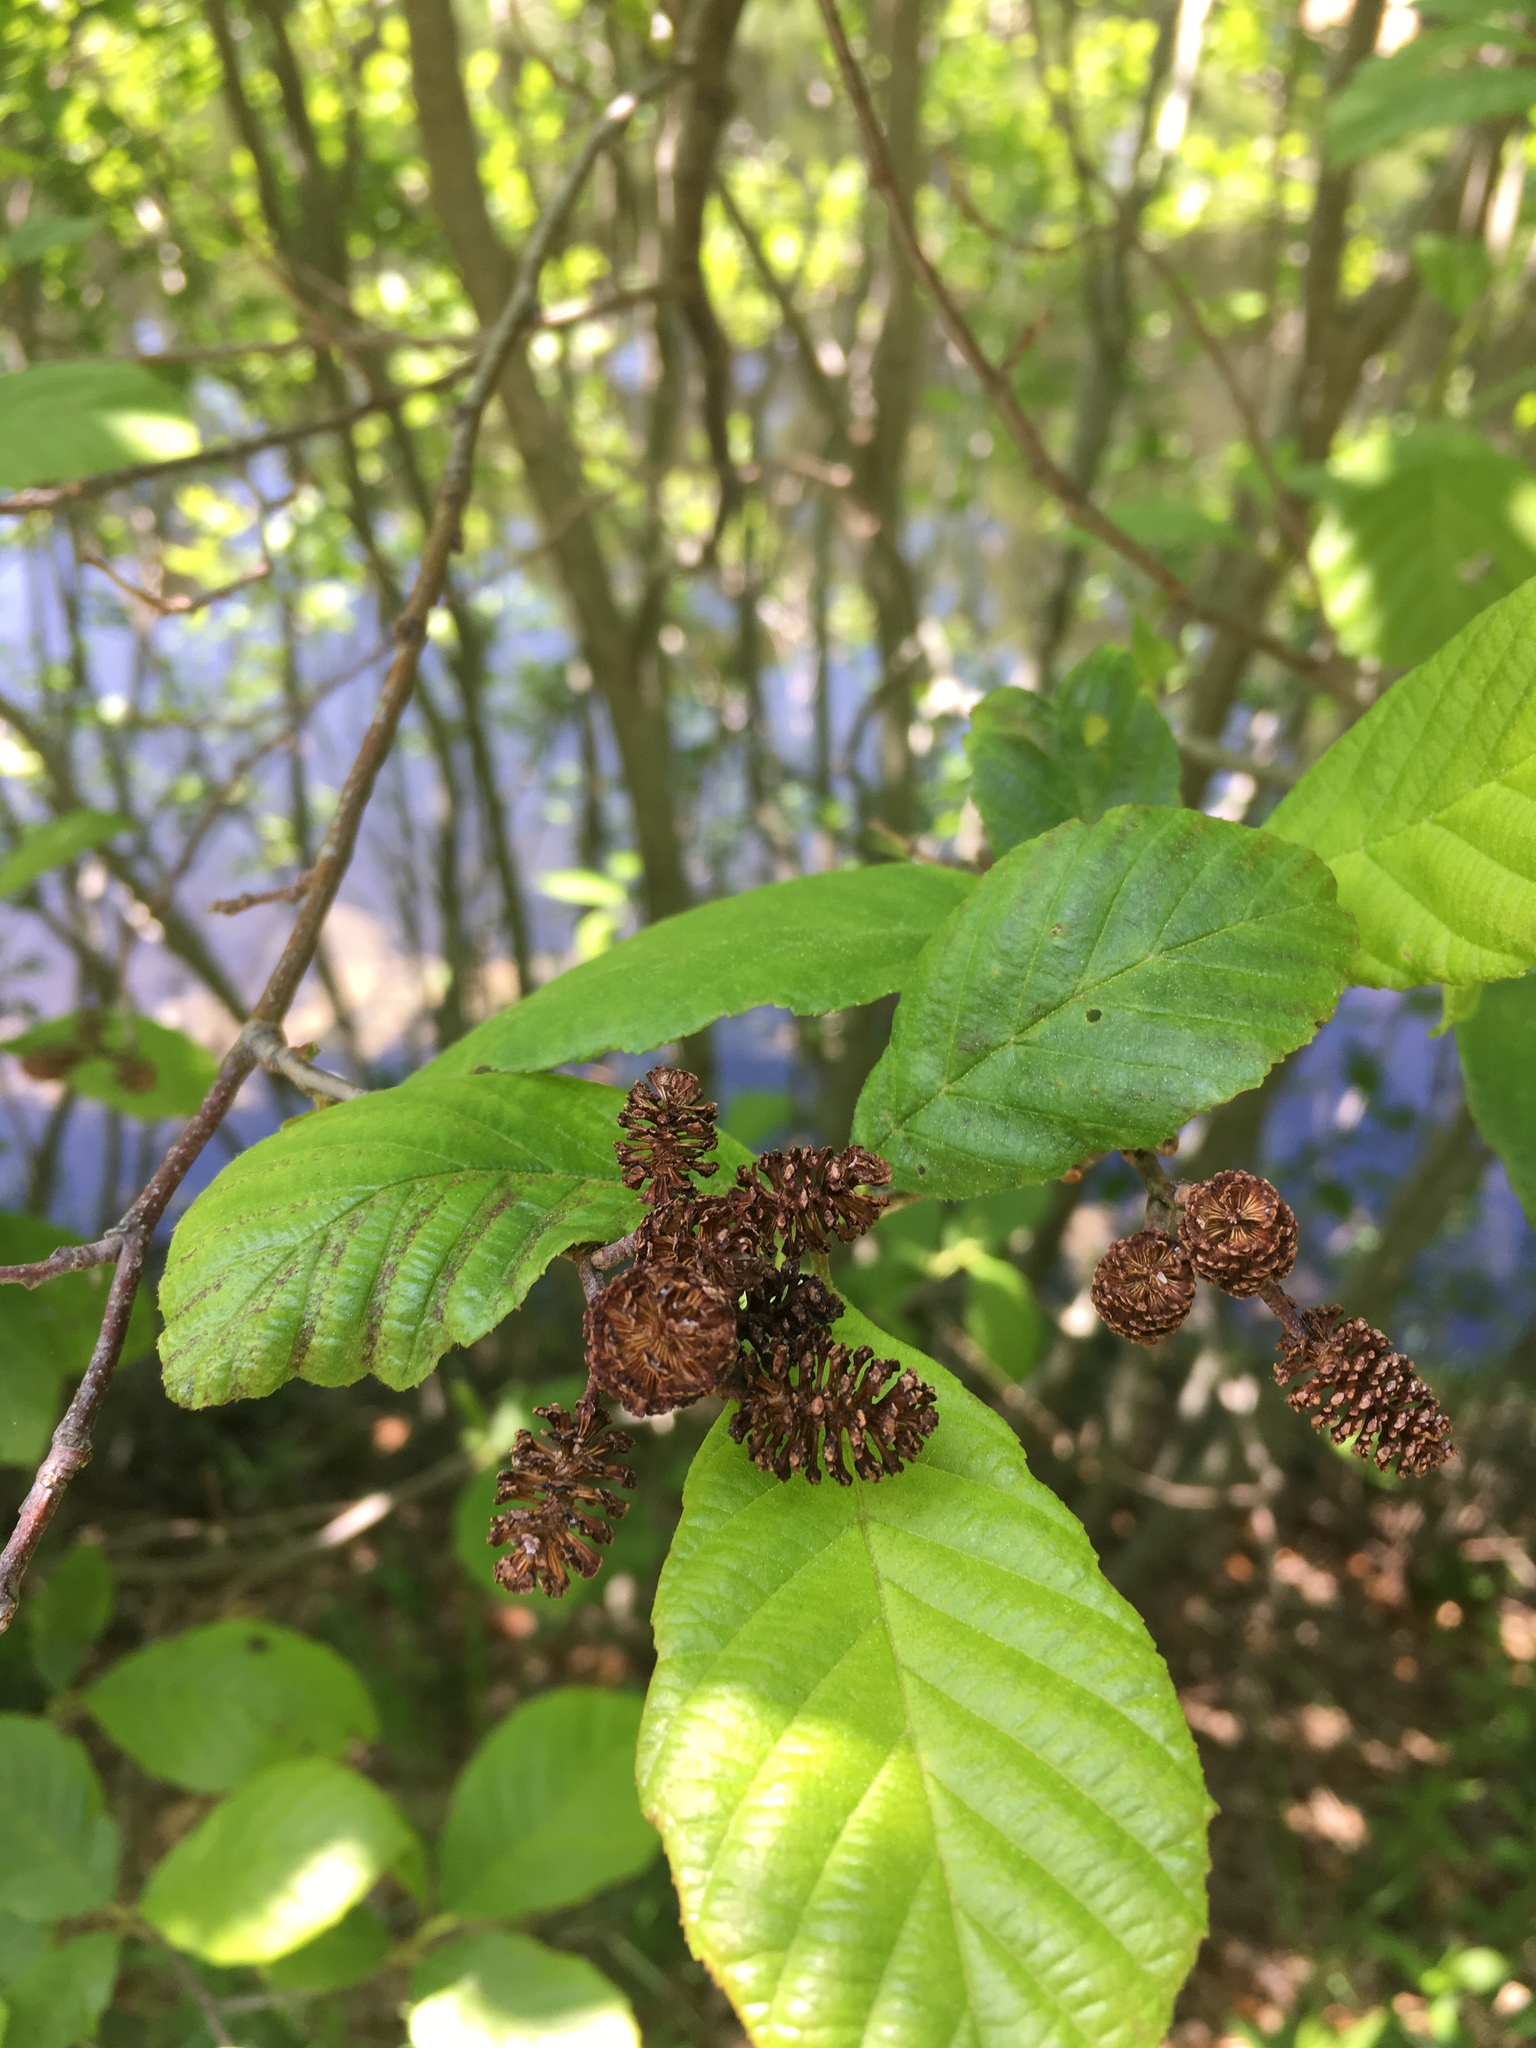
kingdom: Plantae
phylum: Tracheophyta
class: Magnoliopsida
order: Fagales
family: Betulaceae
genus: Alnus
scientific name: Alnus incana
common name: Grey alder
